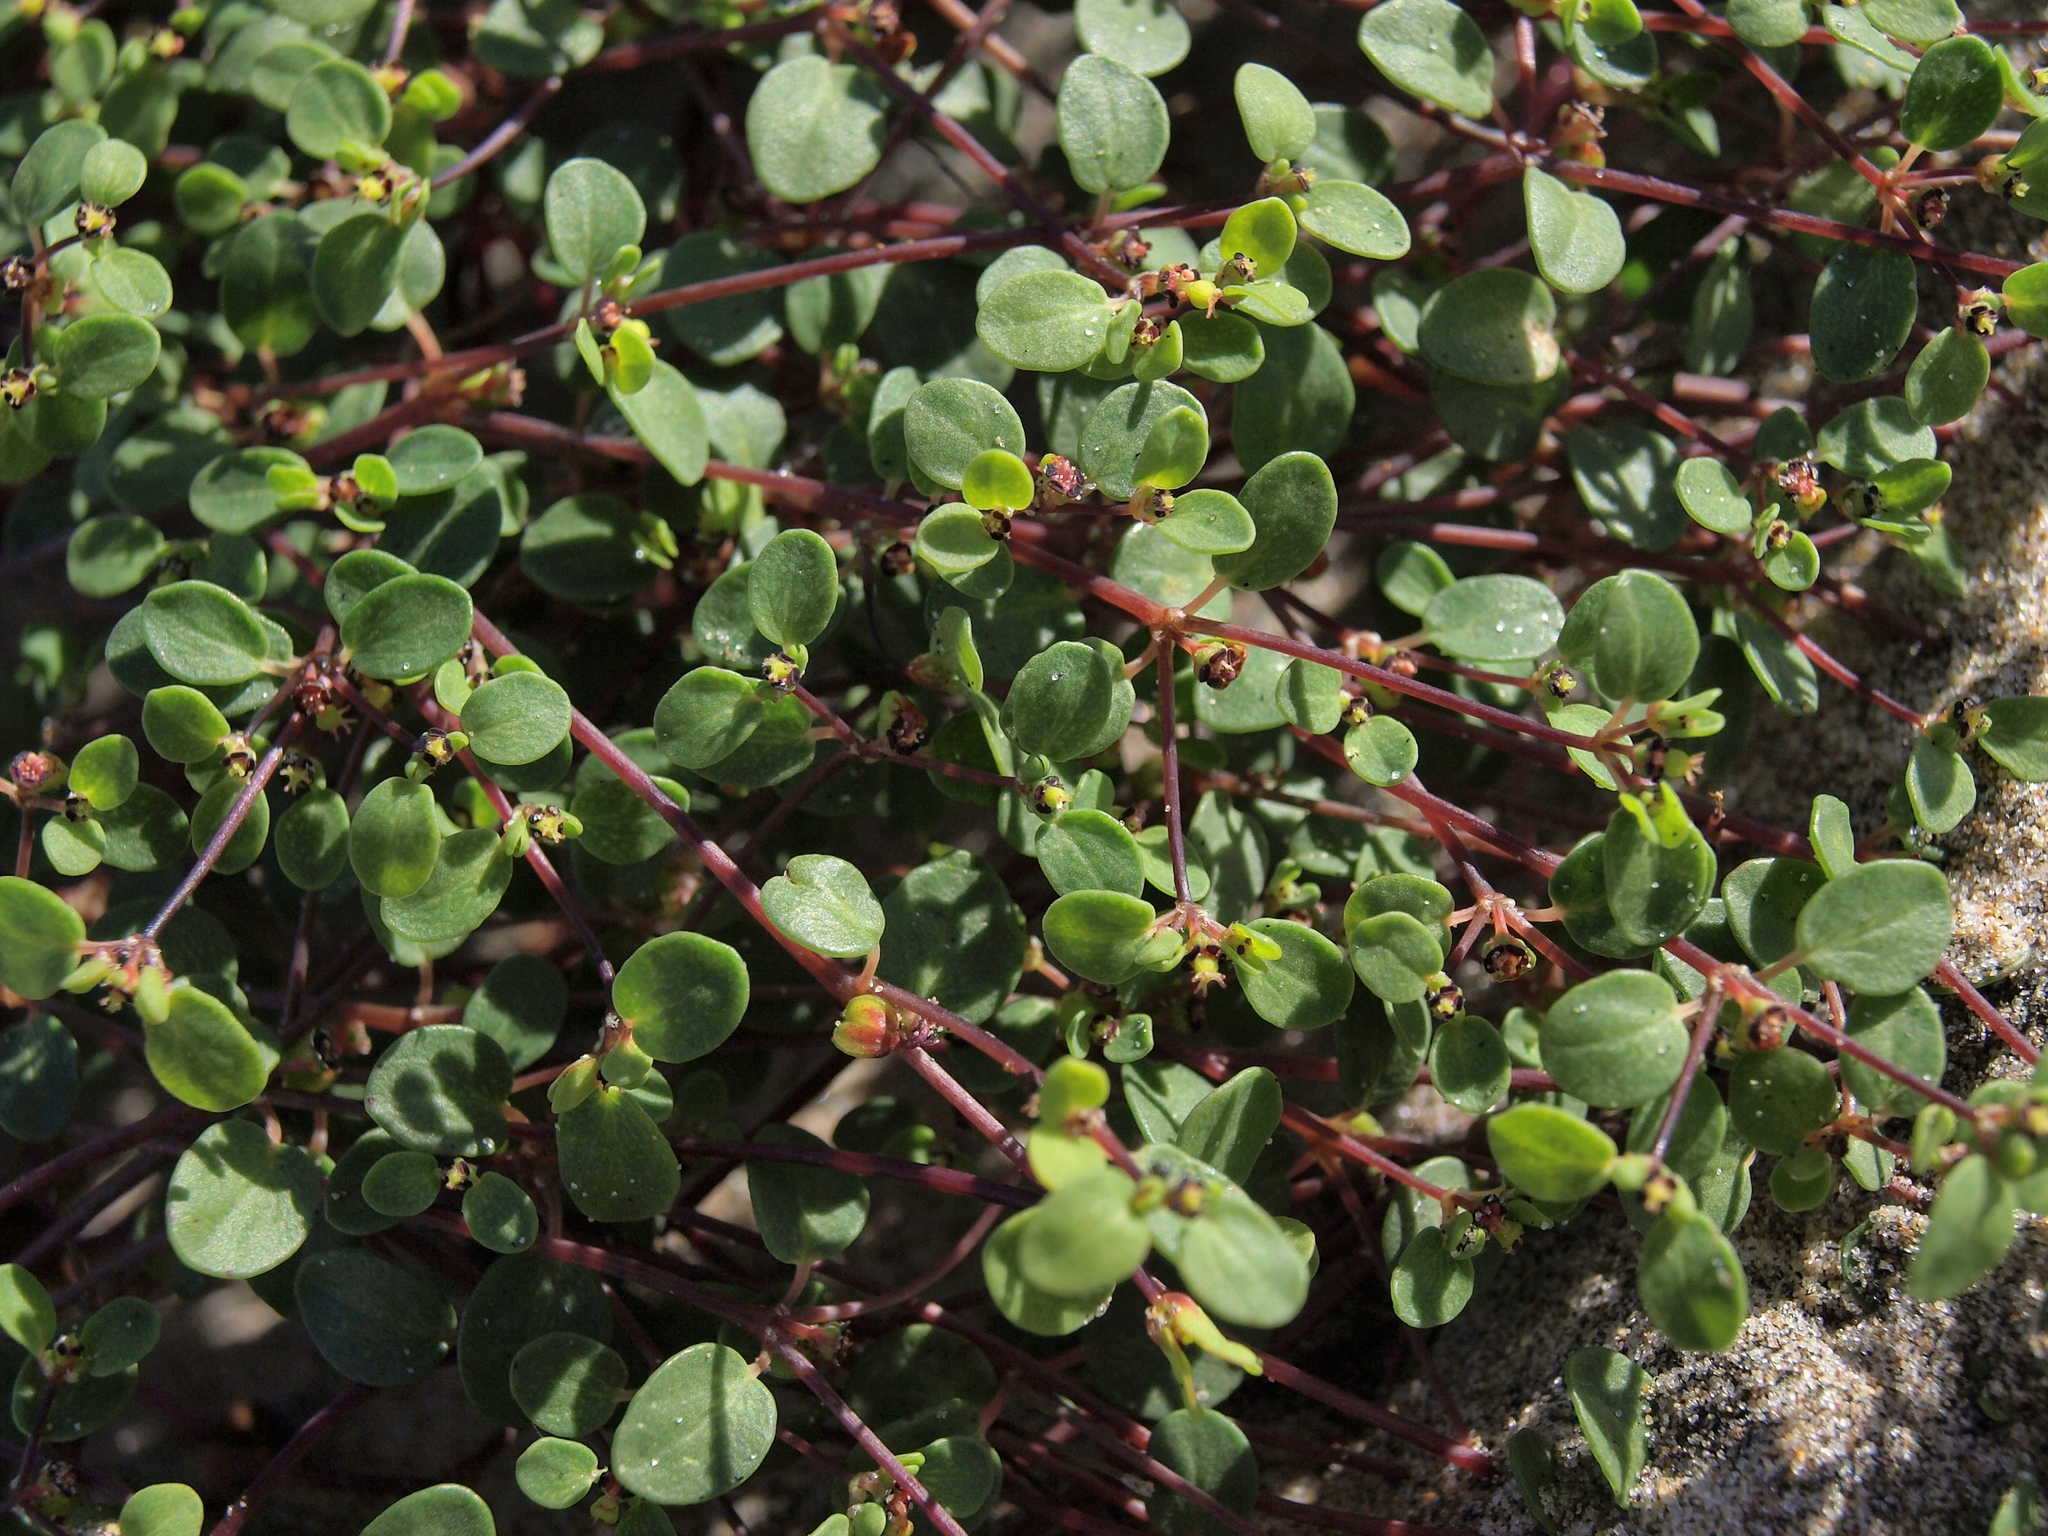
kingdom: Plantae
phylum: Tracheophyta
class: Magnoliopsida
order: Malpighiales
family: Euphorbiaceae
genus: Euphorbia
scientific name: Euphorbia vizcainensis
